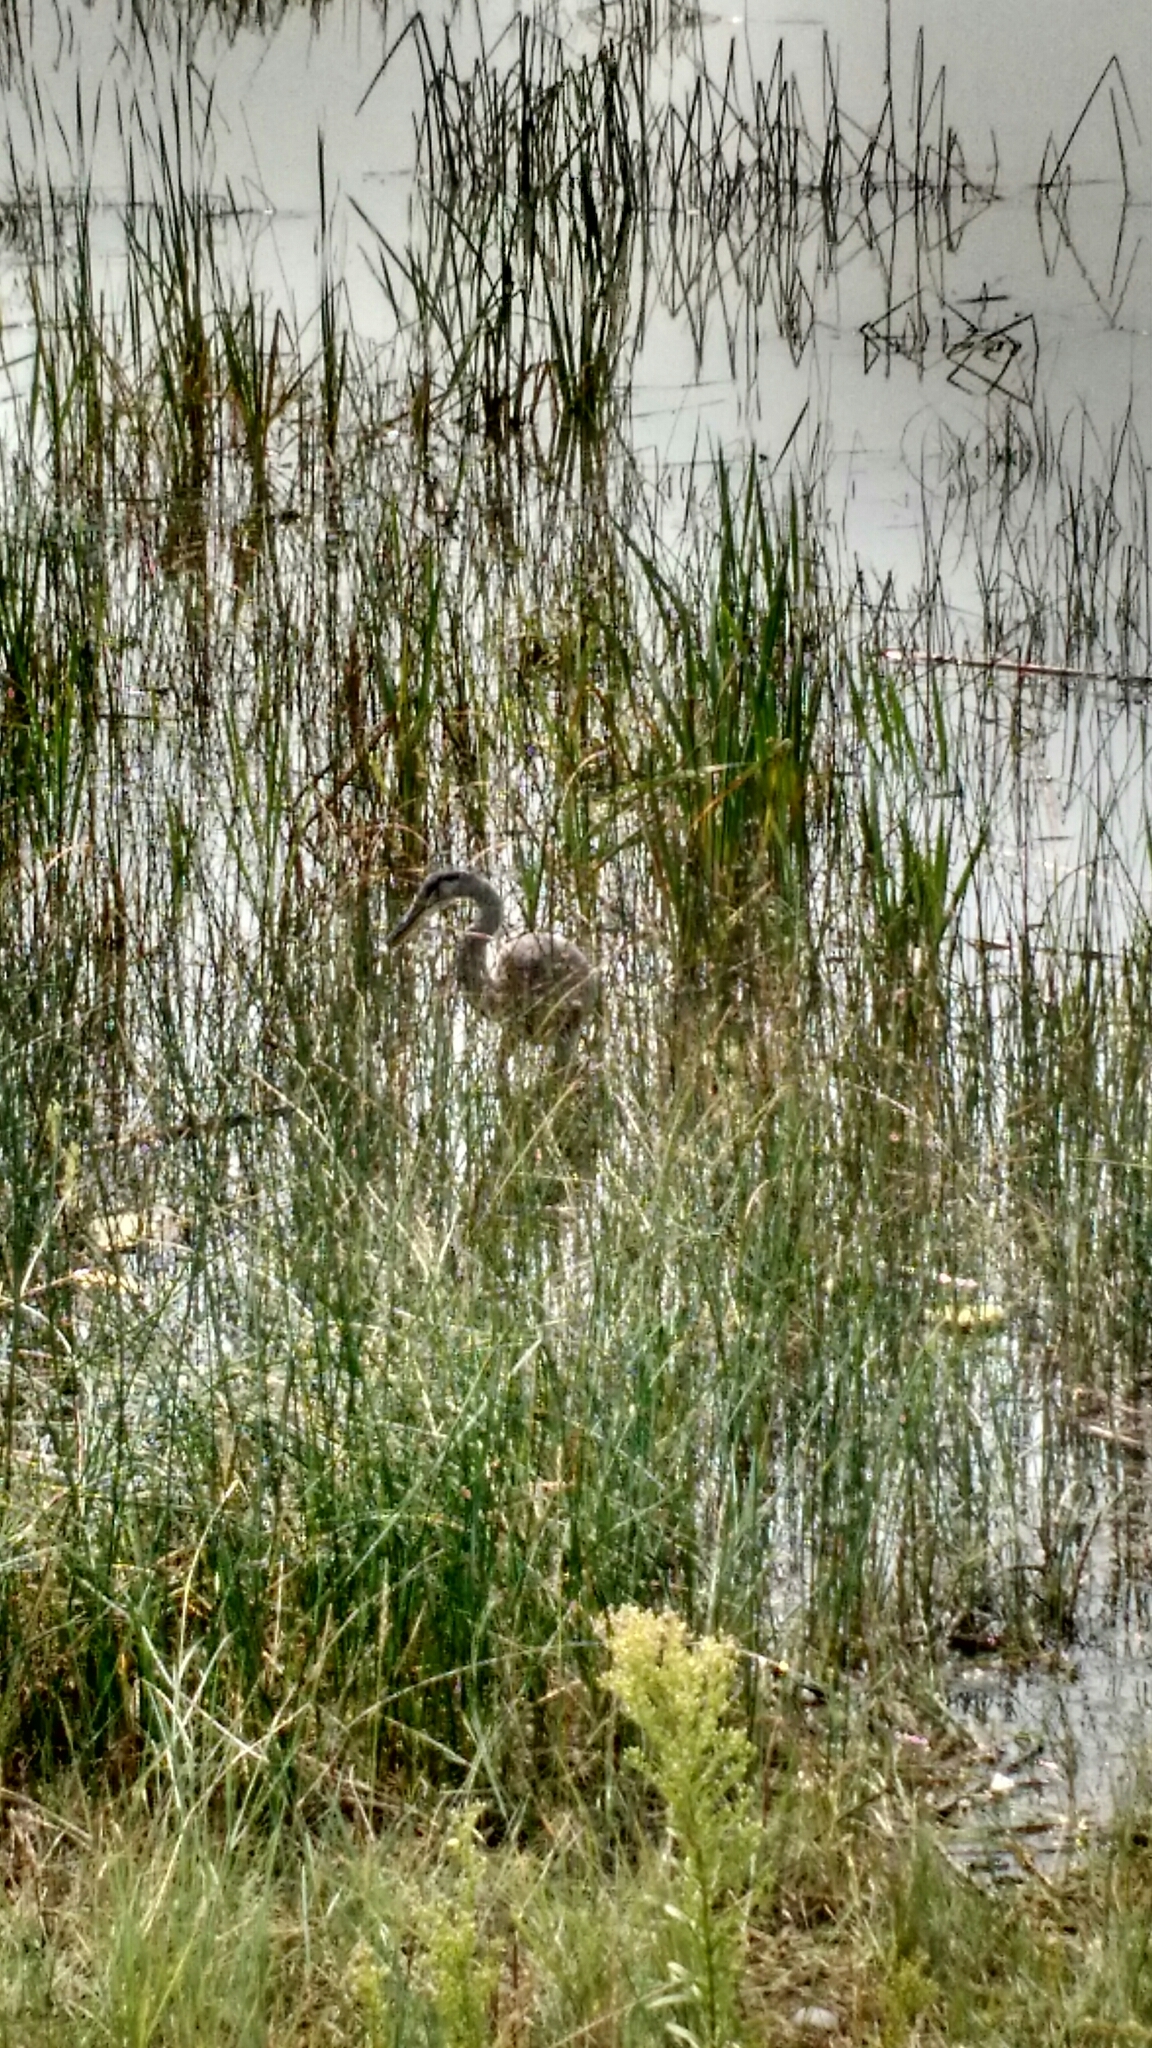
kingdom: Animalia
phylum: Chordata
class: Aves
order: Pelecaniformes
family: Ardeidae
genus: Ardea
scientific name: Ardea herodias
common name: Great blue heron
